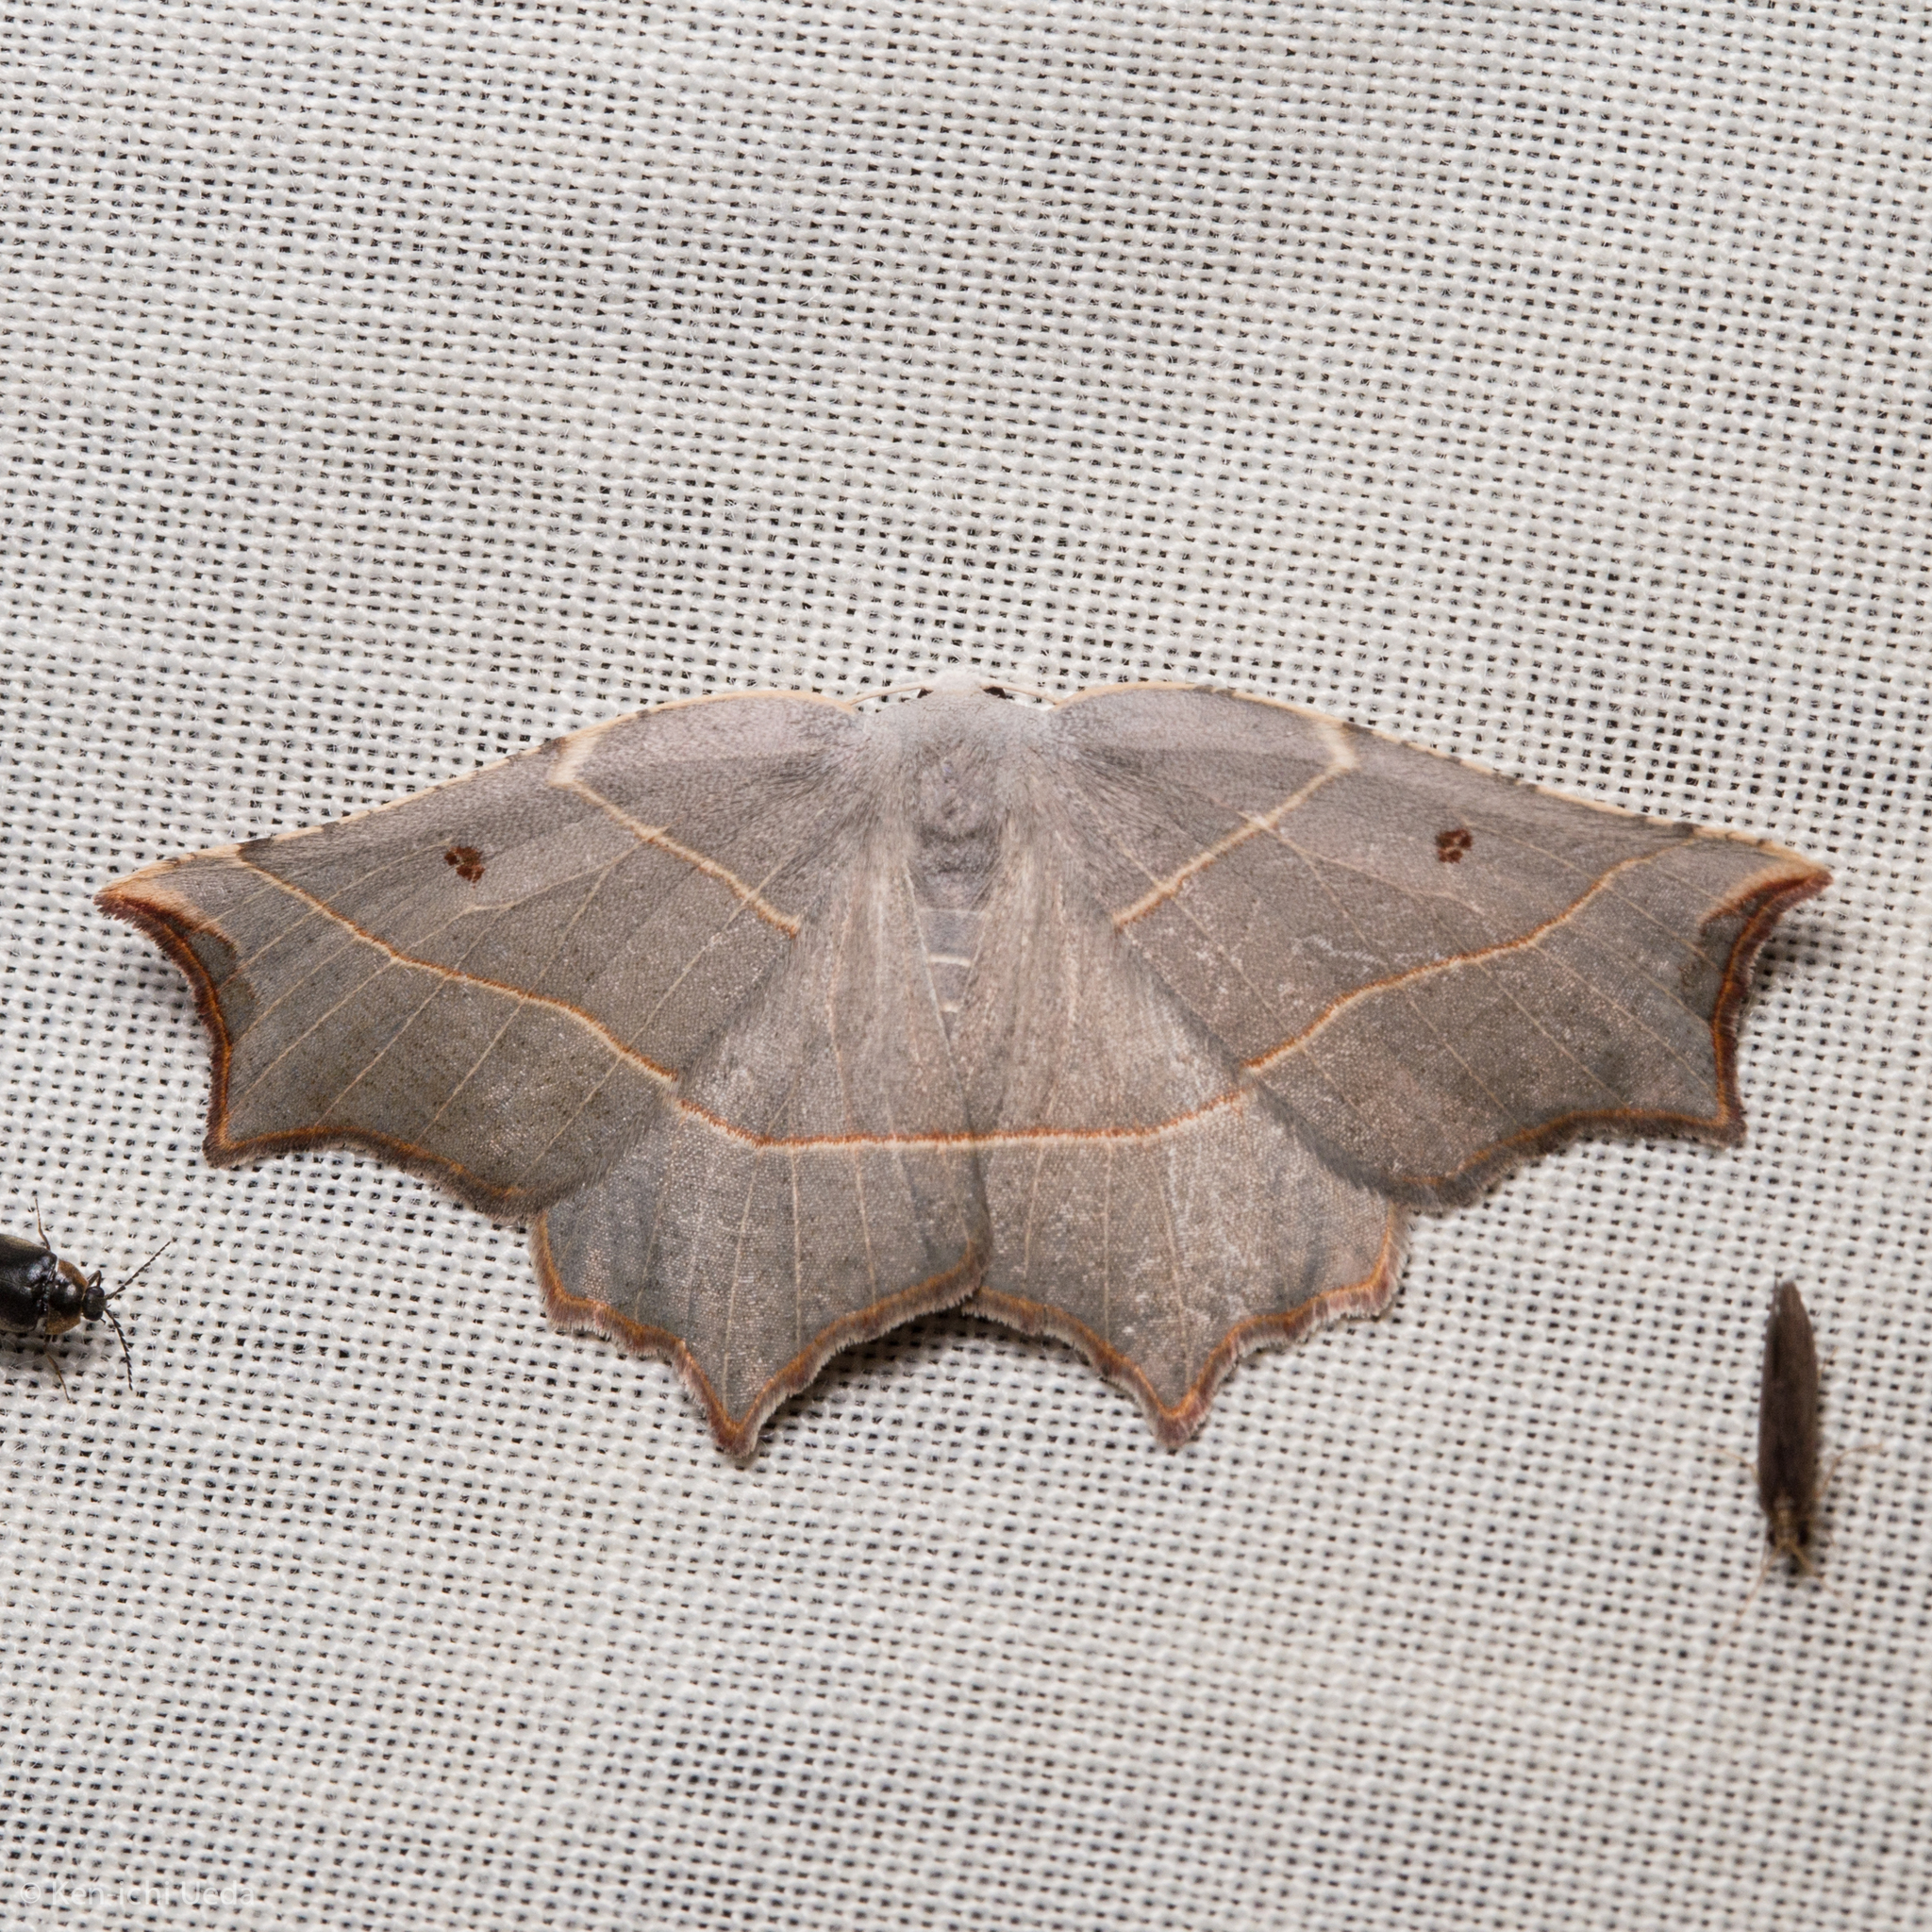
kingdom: Animalia
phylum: Arthropoda
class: Insecta
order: Lepidoptera
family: Geometridae
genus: Metanema
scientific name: Metanema inatomaria
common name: Pale metanema
